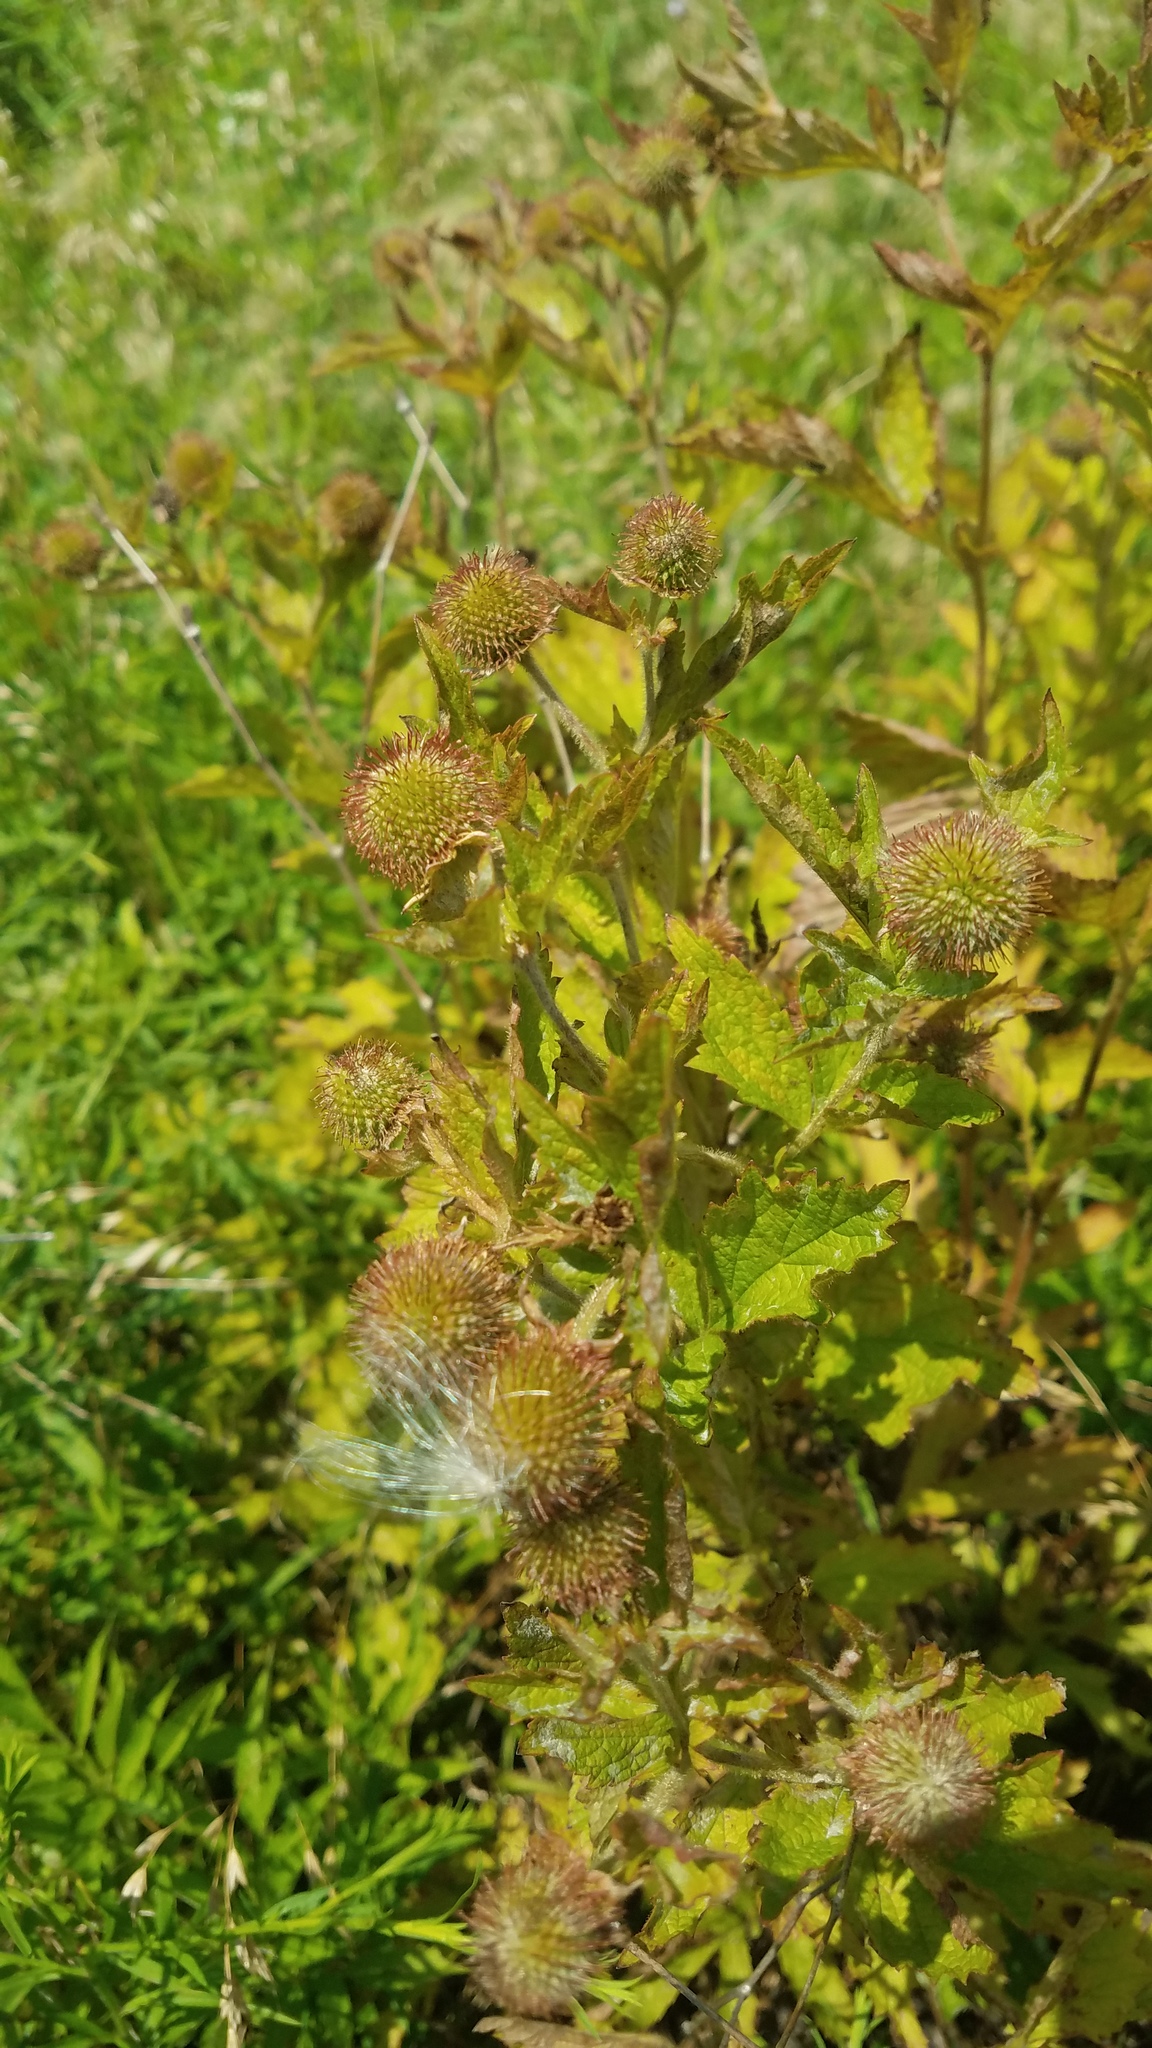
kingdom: Plantae
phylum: Tracheophyta
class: Magnoliopsida
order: Rosales
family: Rosaceae
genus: Geum
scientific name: Geum laciniatum
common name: Rough avens
